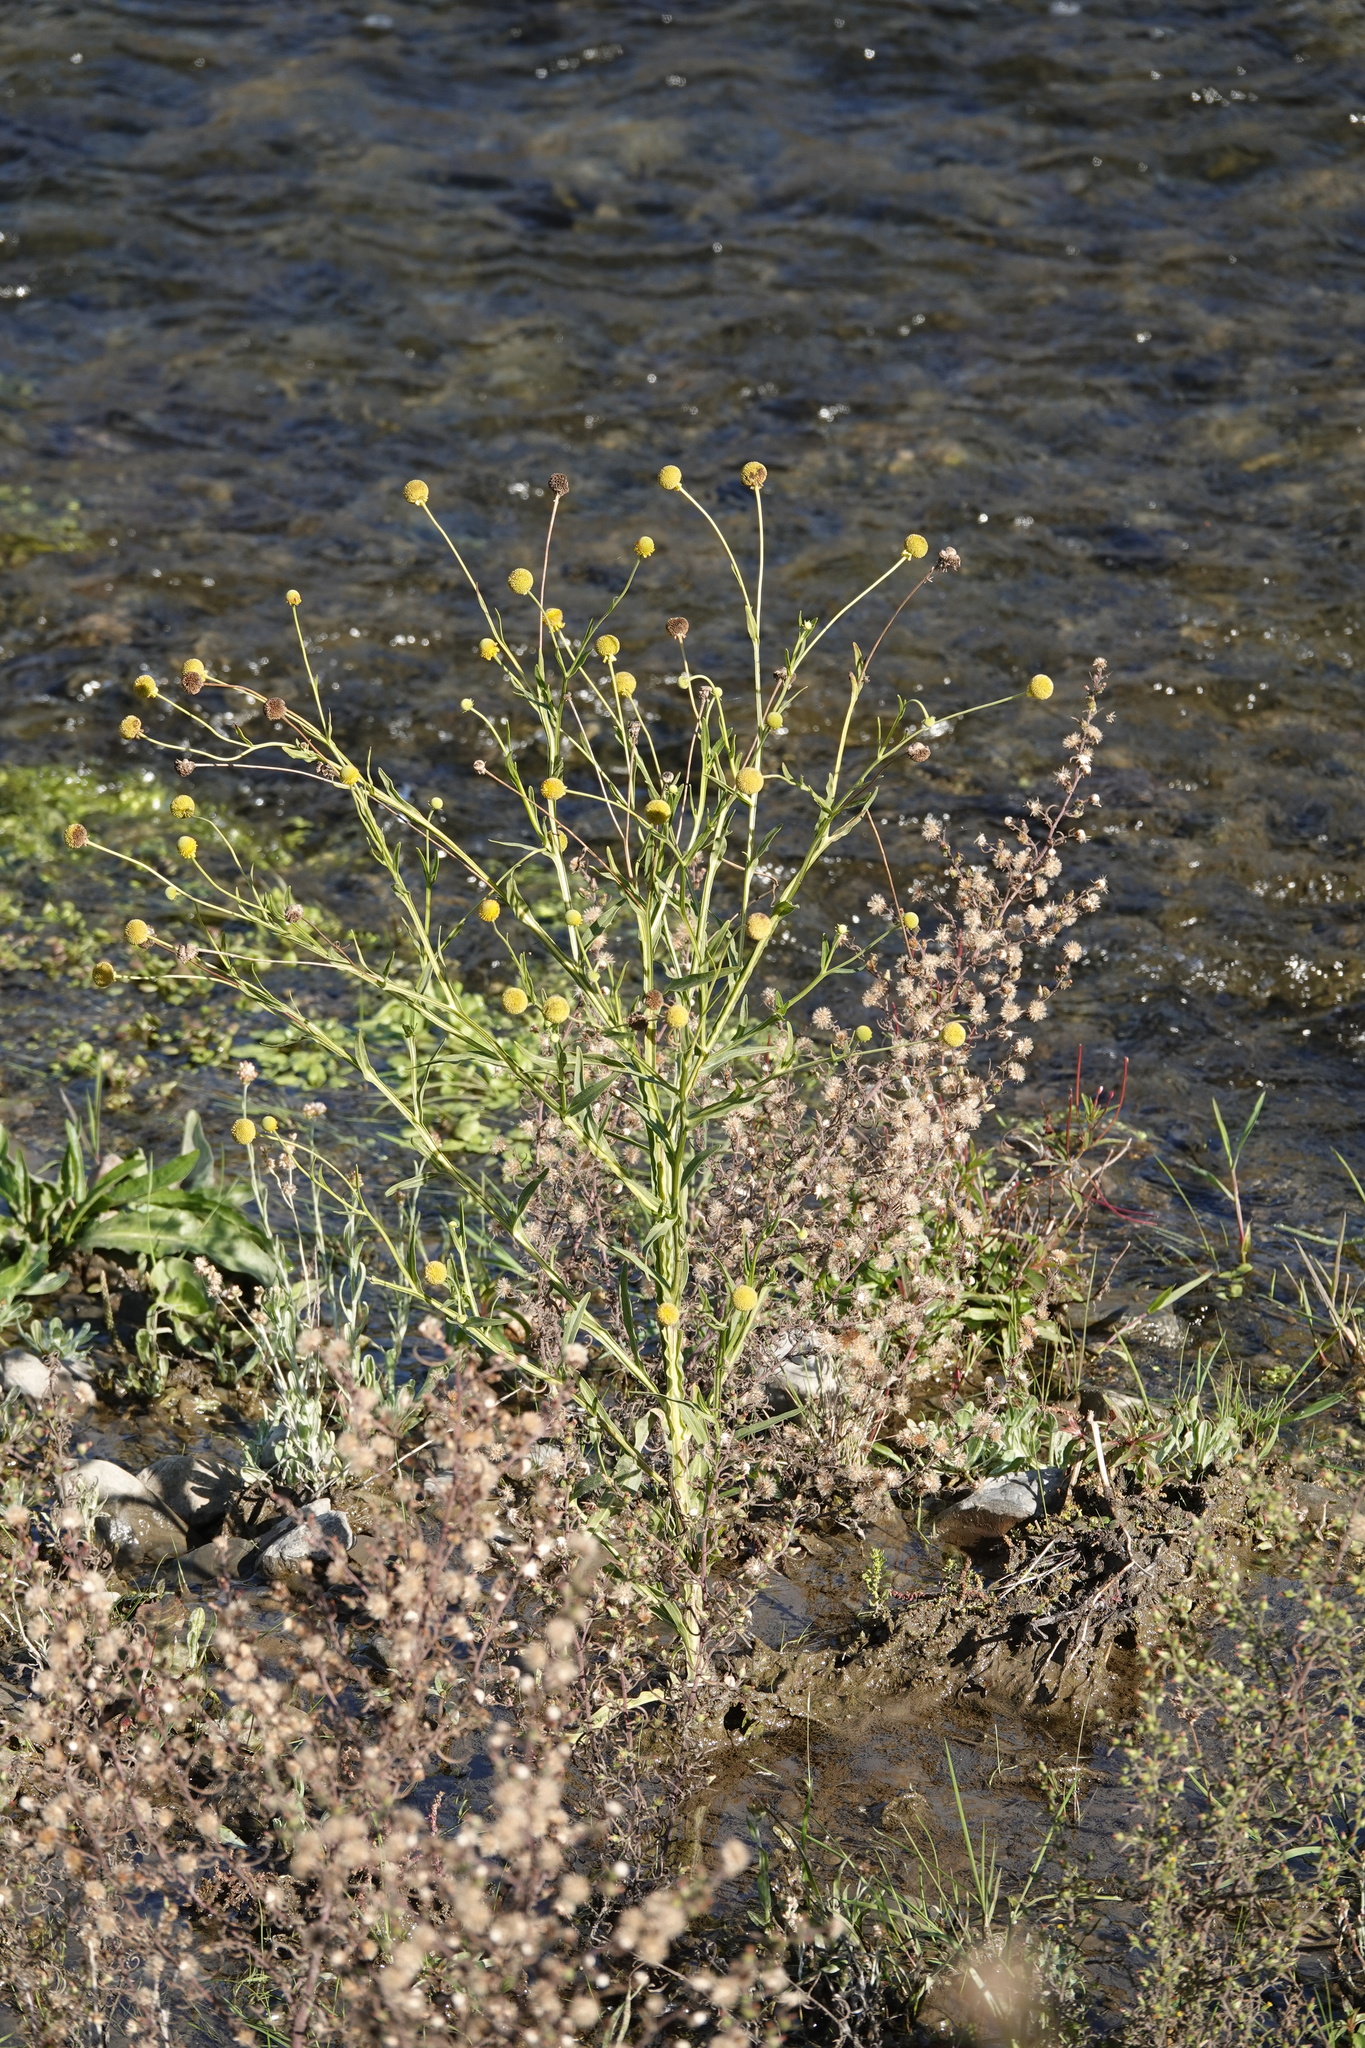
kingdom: Plantae
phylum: Tracheophyta
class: Magnoliopsida
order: Asterales
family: Asteraceae
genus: Helenium
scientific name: Helenium puberulum
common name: Sneezewort
